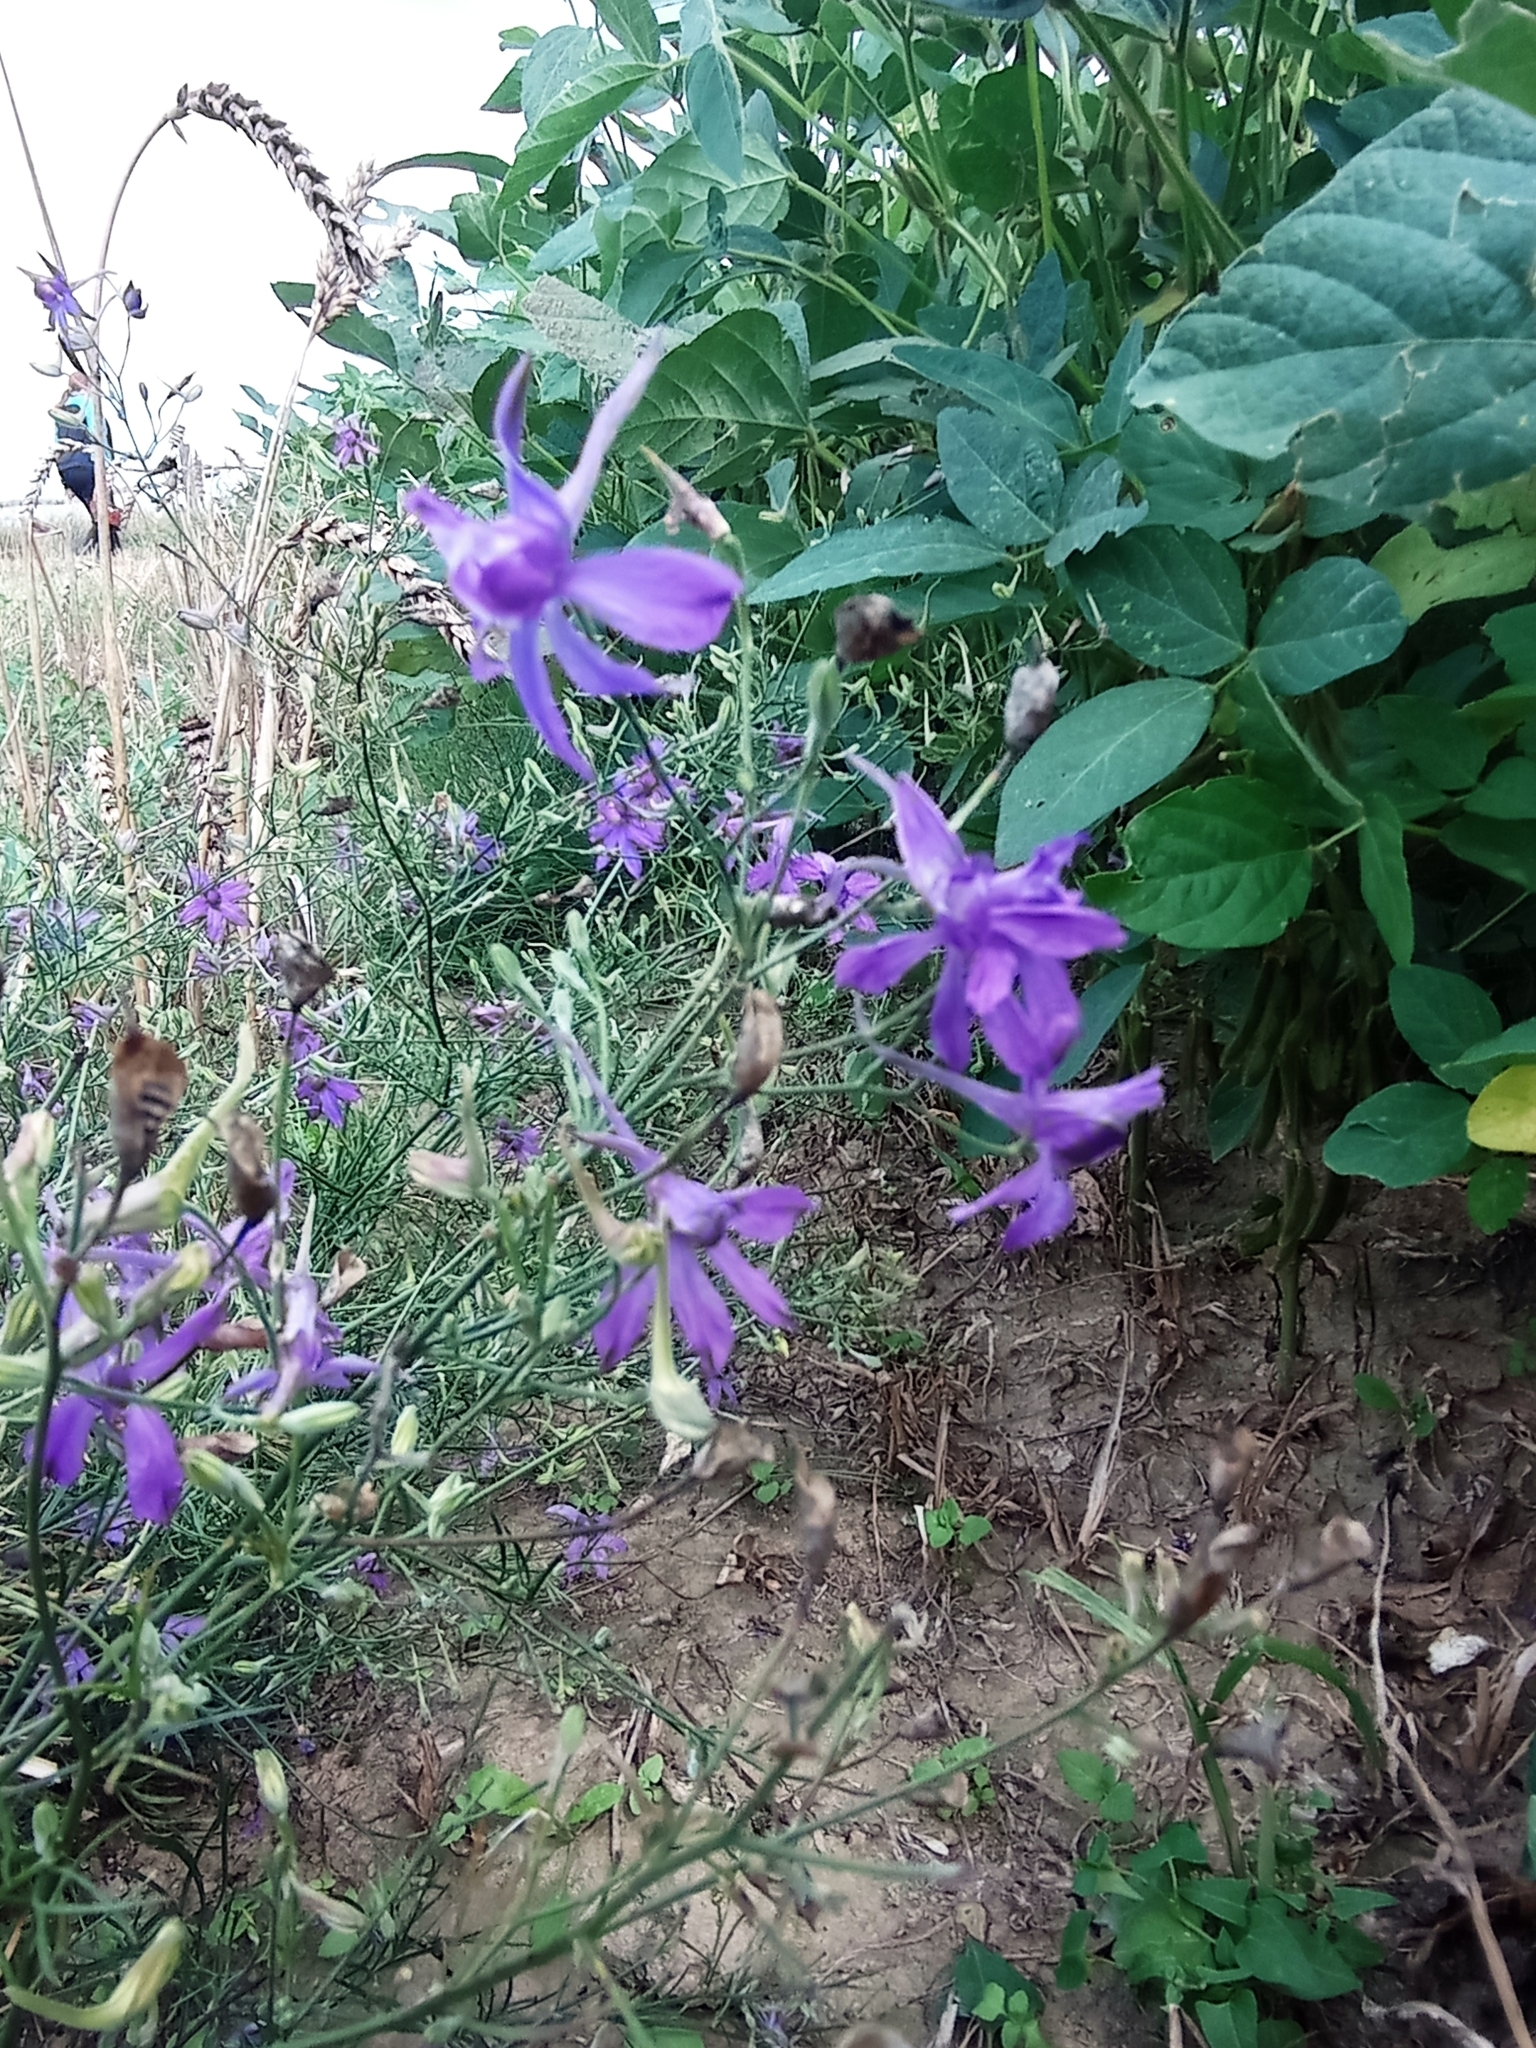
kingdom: Plantae
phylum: Tracheophyta
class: Magnoliopsida
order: Ranunculales
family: Ranunculaceae
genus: Delphinium
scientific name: Delphinium consolida
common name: Branching larkspur
